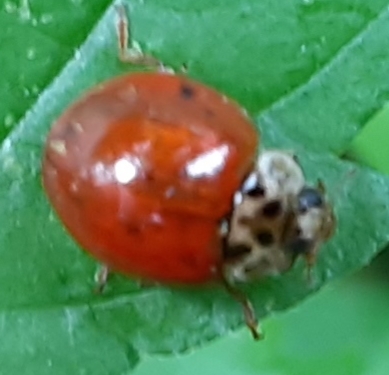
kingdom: Animalia
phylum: Arthropoda
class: Insecta
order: Coleoptera
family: Coccinellidae
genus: Harmonia
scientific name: Harmonia axyridis
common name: Harlequin ladybird
